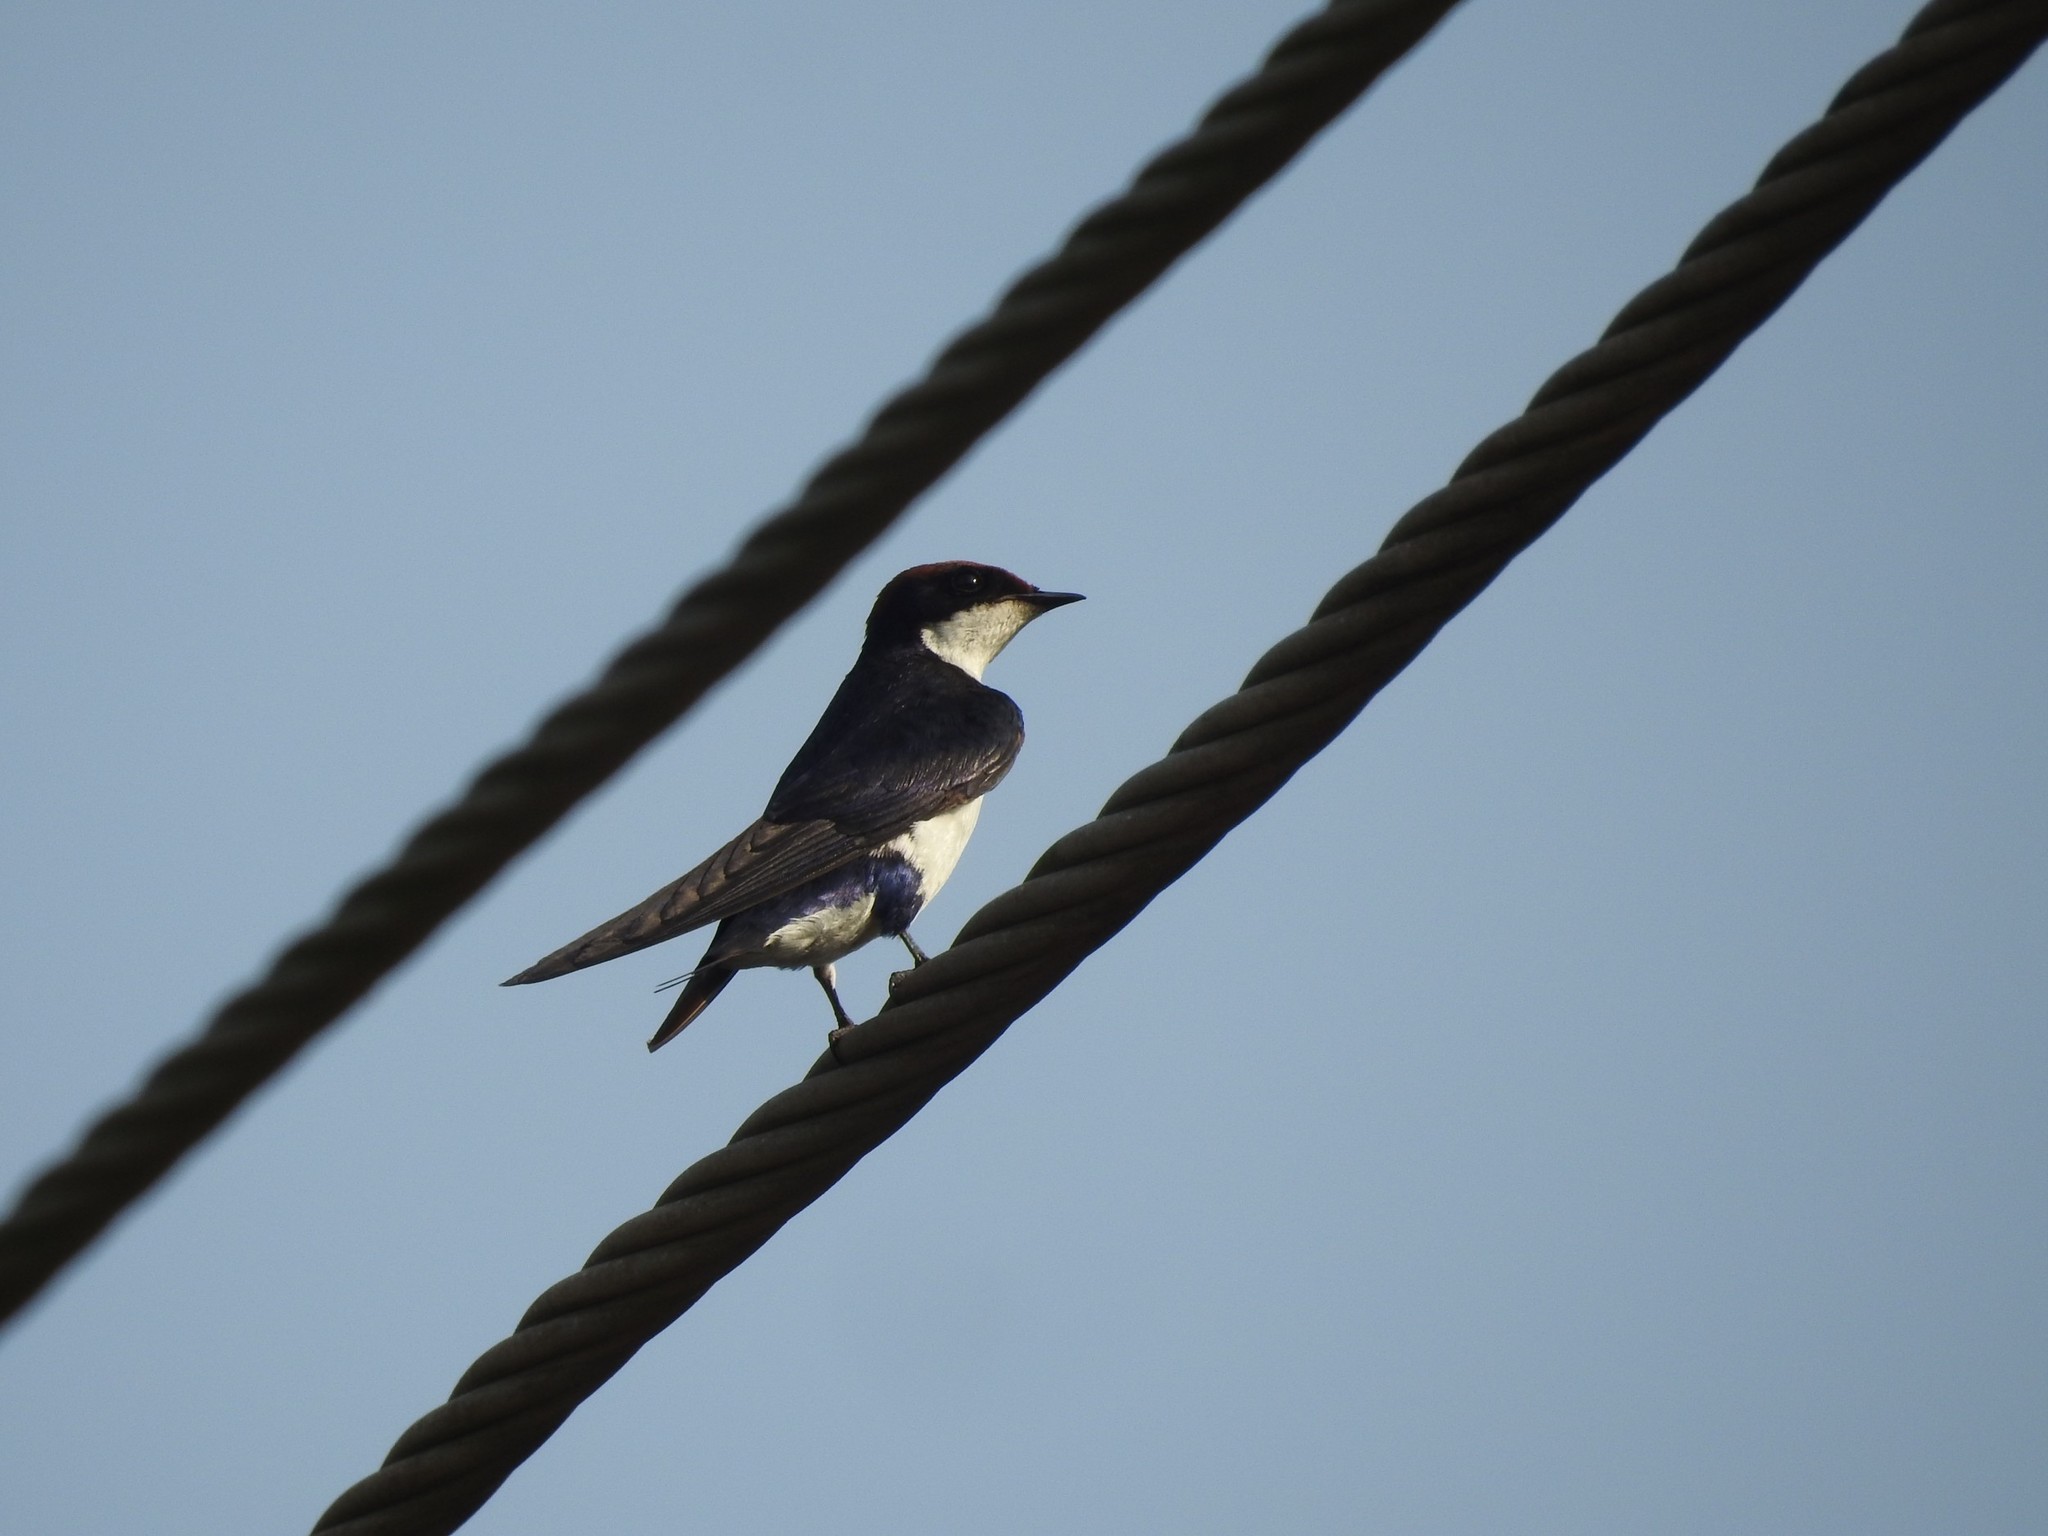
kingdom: Animalia
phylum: Chordata
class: Aves
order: Passeriformes
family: Hirundinidae
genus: Hirundo
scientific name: Hirundo smithii
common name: Wire-tailed swallow
